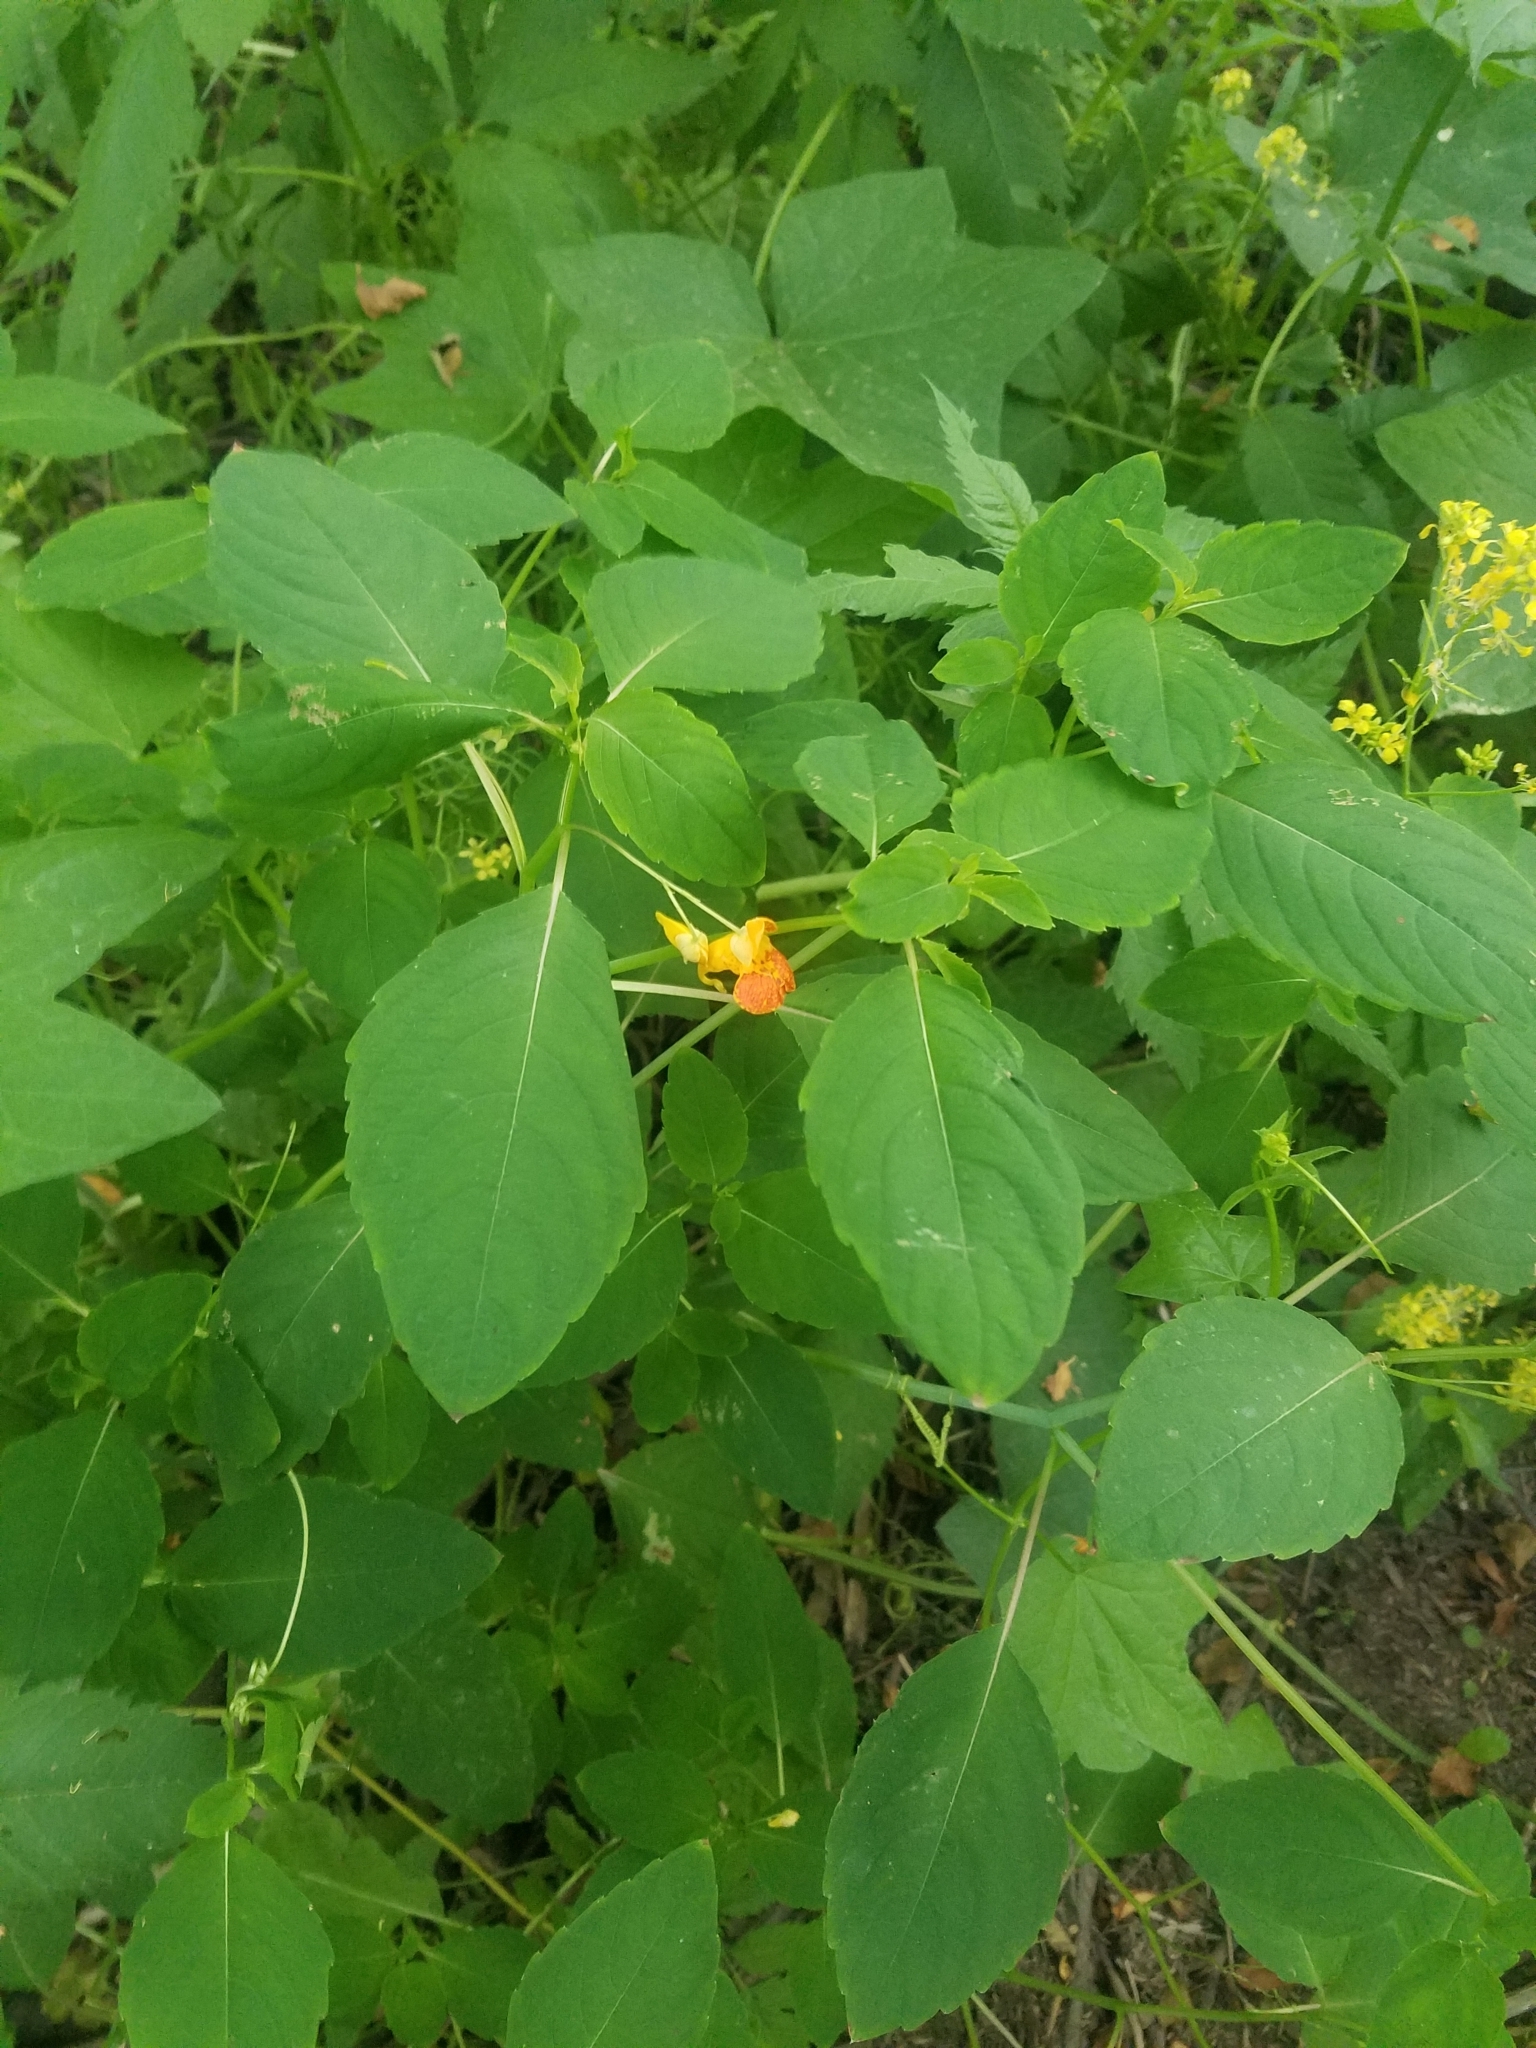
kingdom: Plantae
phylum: Tracheophyta
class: Magnoliopsida
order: Ericales
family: Balsaminaceae
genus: Impatiens
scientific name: Impatiens capensis
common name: Orange balsam
